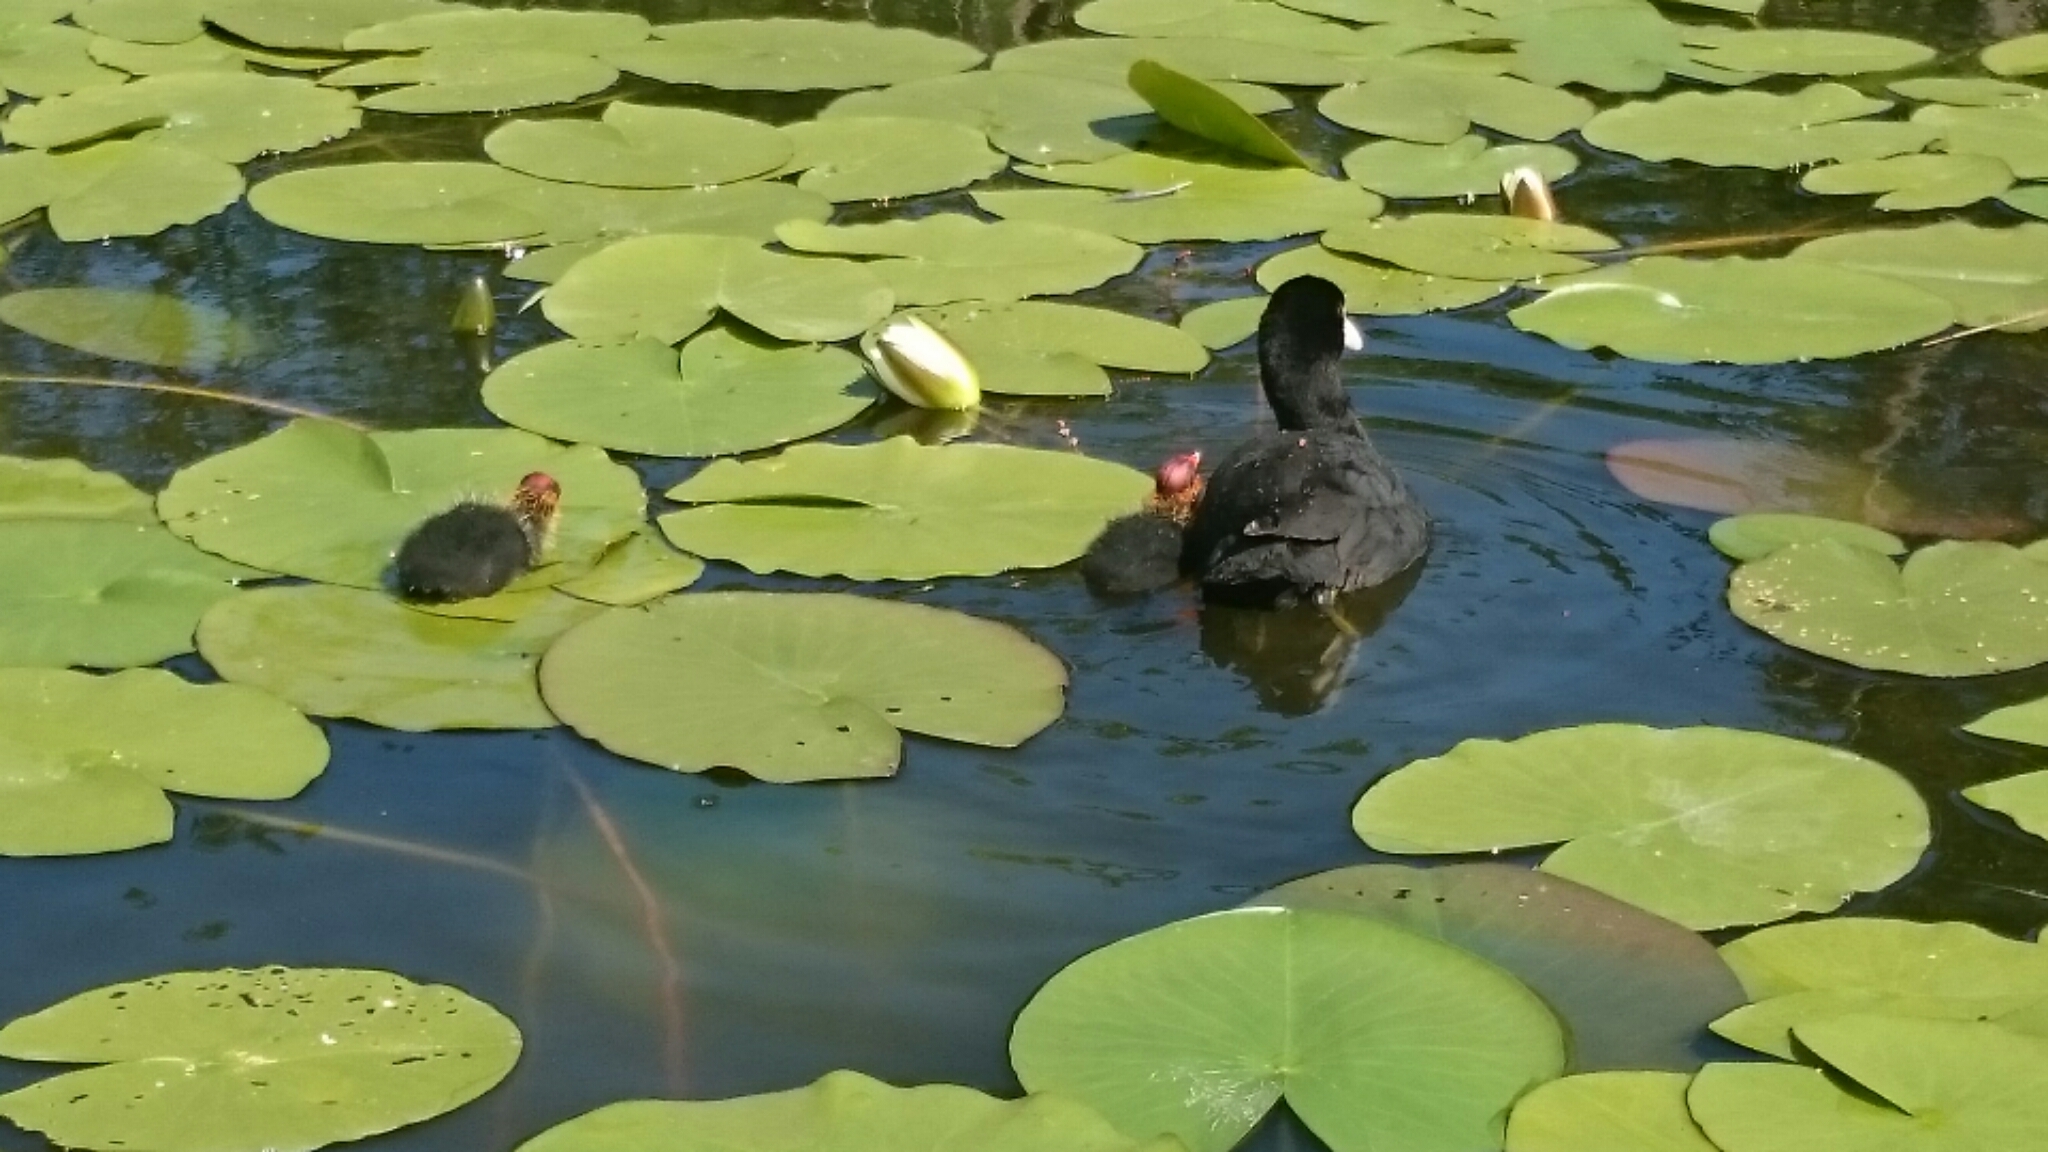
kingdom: Animalia
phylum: Chordata
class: Aves
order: Gruiformes
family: Rallidae
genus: Fulica
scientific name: Fulica atra
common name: Eurasian coot
